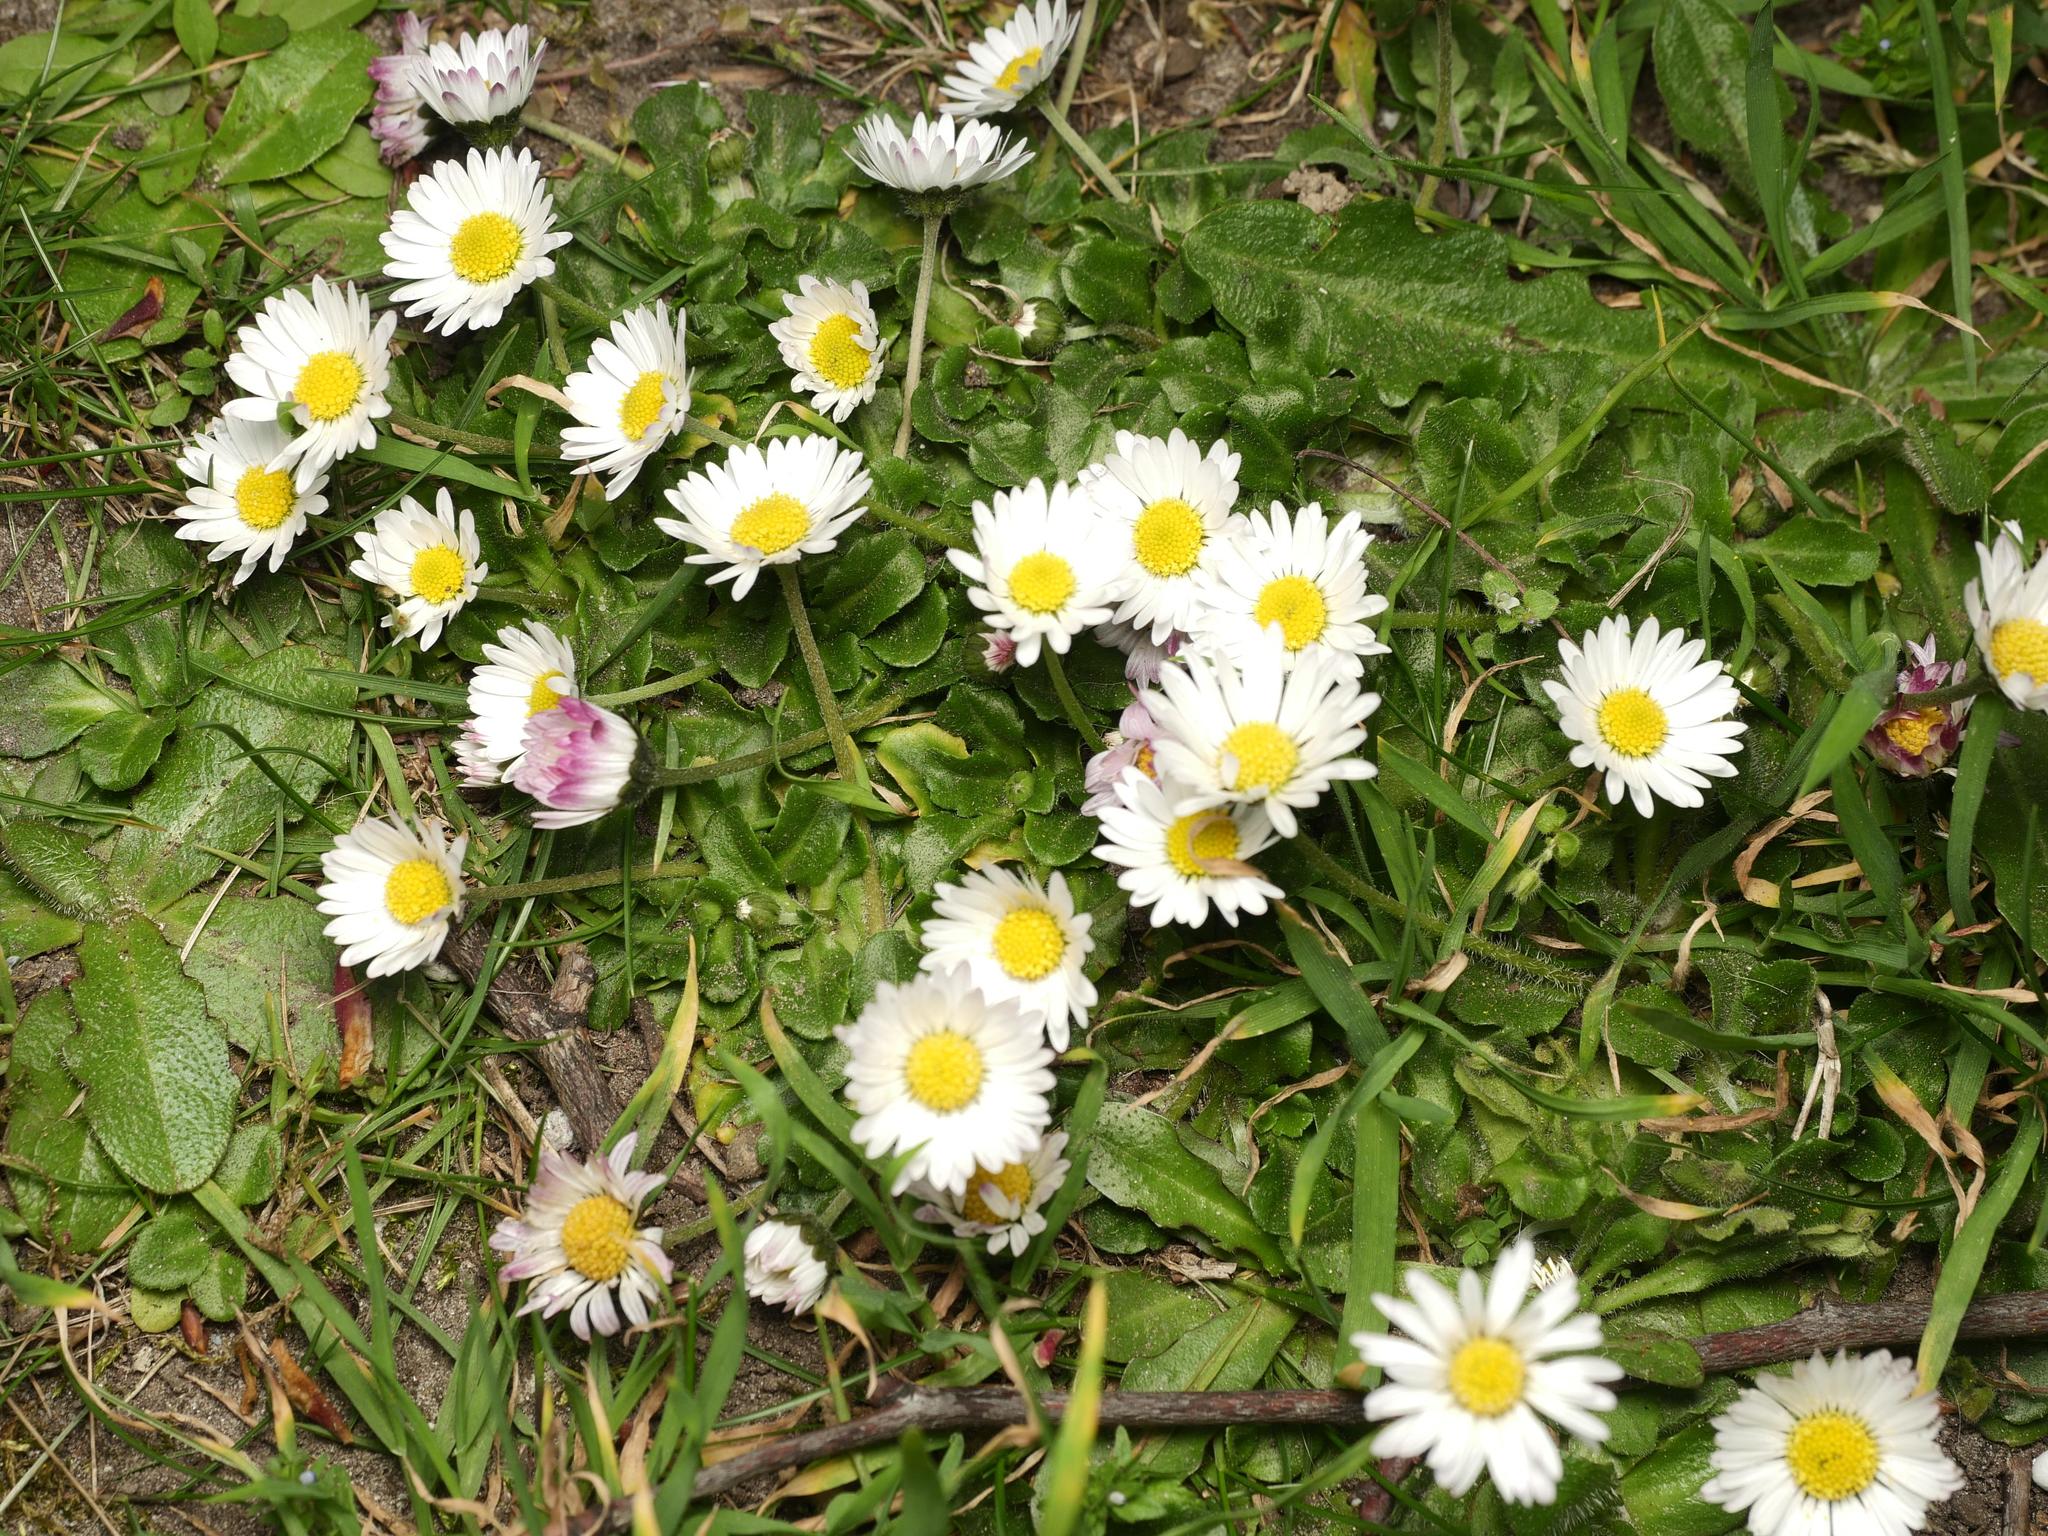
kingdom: Plantae
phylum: Tracheophyta
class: Magnoliopsida
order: Asterales
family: Asteraceae
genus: Bellis
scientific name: Bellis perennis
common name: Lawndaisy
